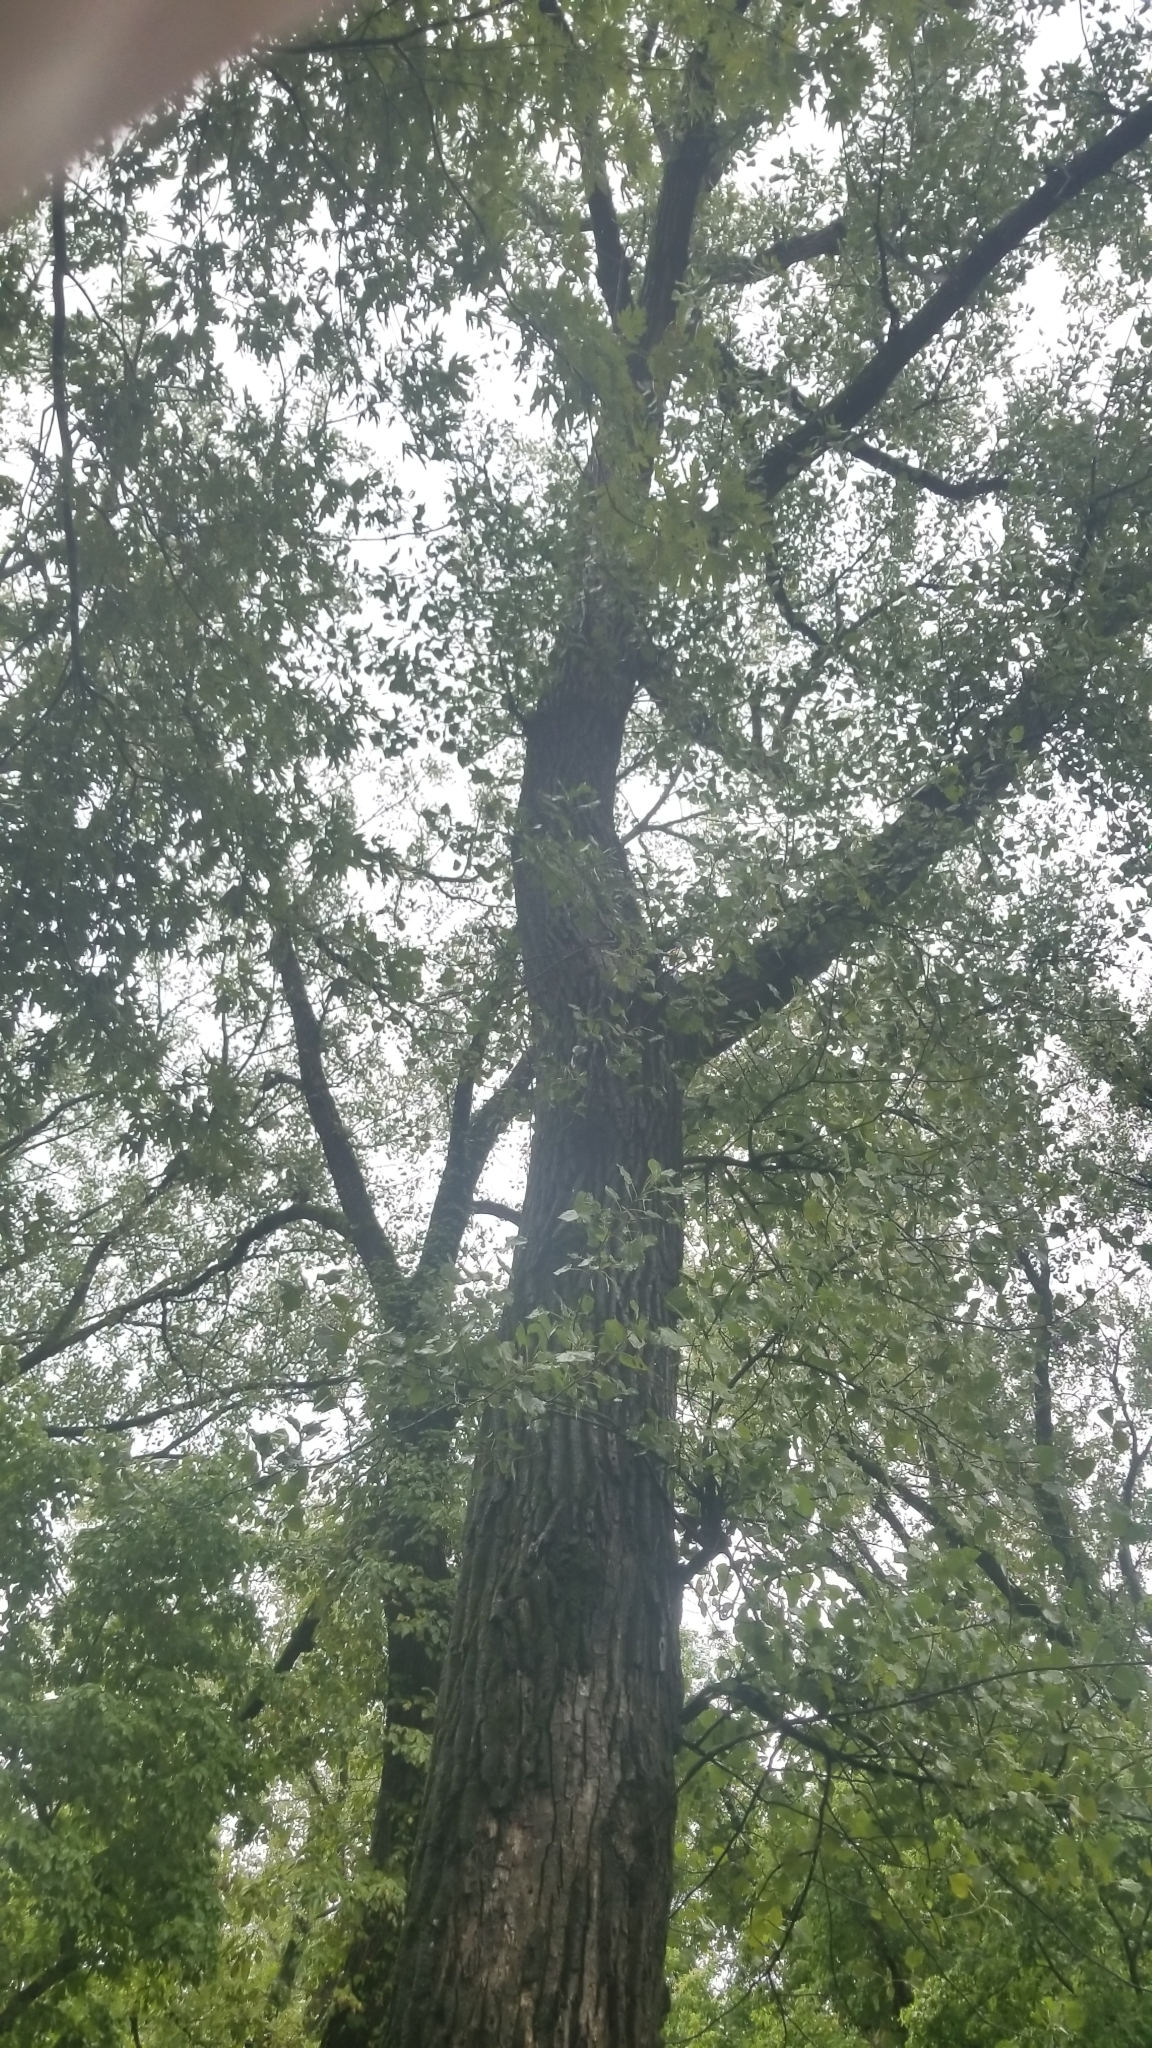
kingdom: Plantae
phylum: Tracheophyta
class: Magnoliopsida
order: Malpighiales
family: Salicaceae
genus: Populus
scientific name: Populus deltoides
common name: Eastern cottonwood
